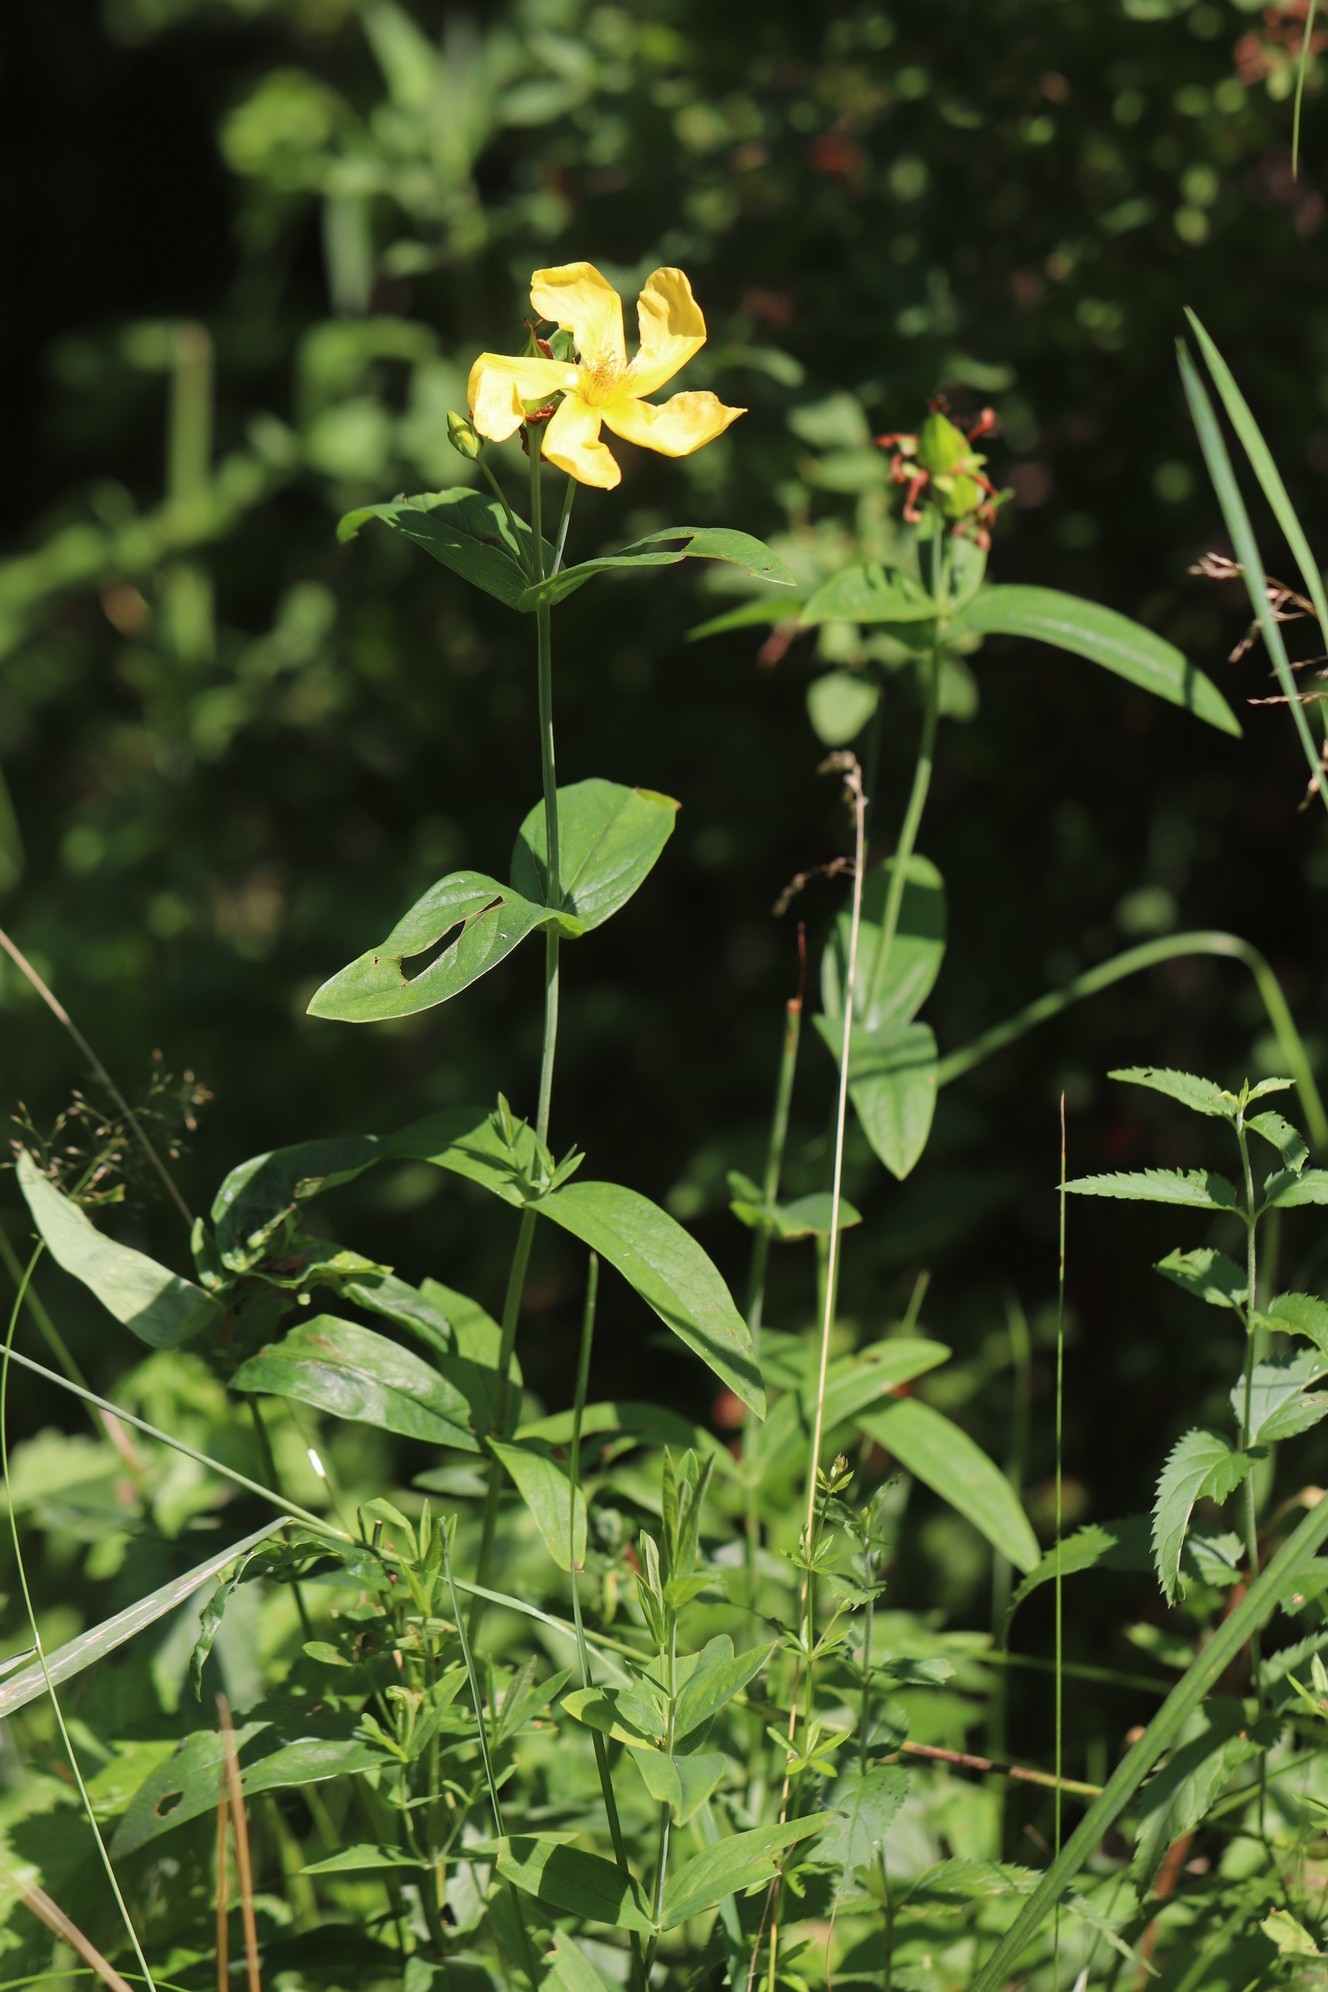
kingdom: Plantae
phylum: Tracheophyta
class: Magnoliopsida
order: Malpighiales
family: Hypericaceae
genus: Hypericum
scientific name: Hypericum ascyron
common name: Giant st. john's-wort
